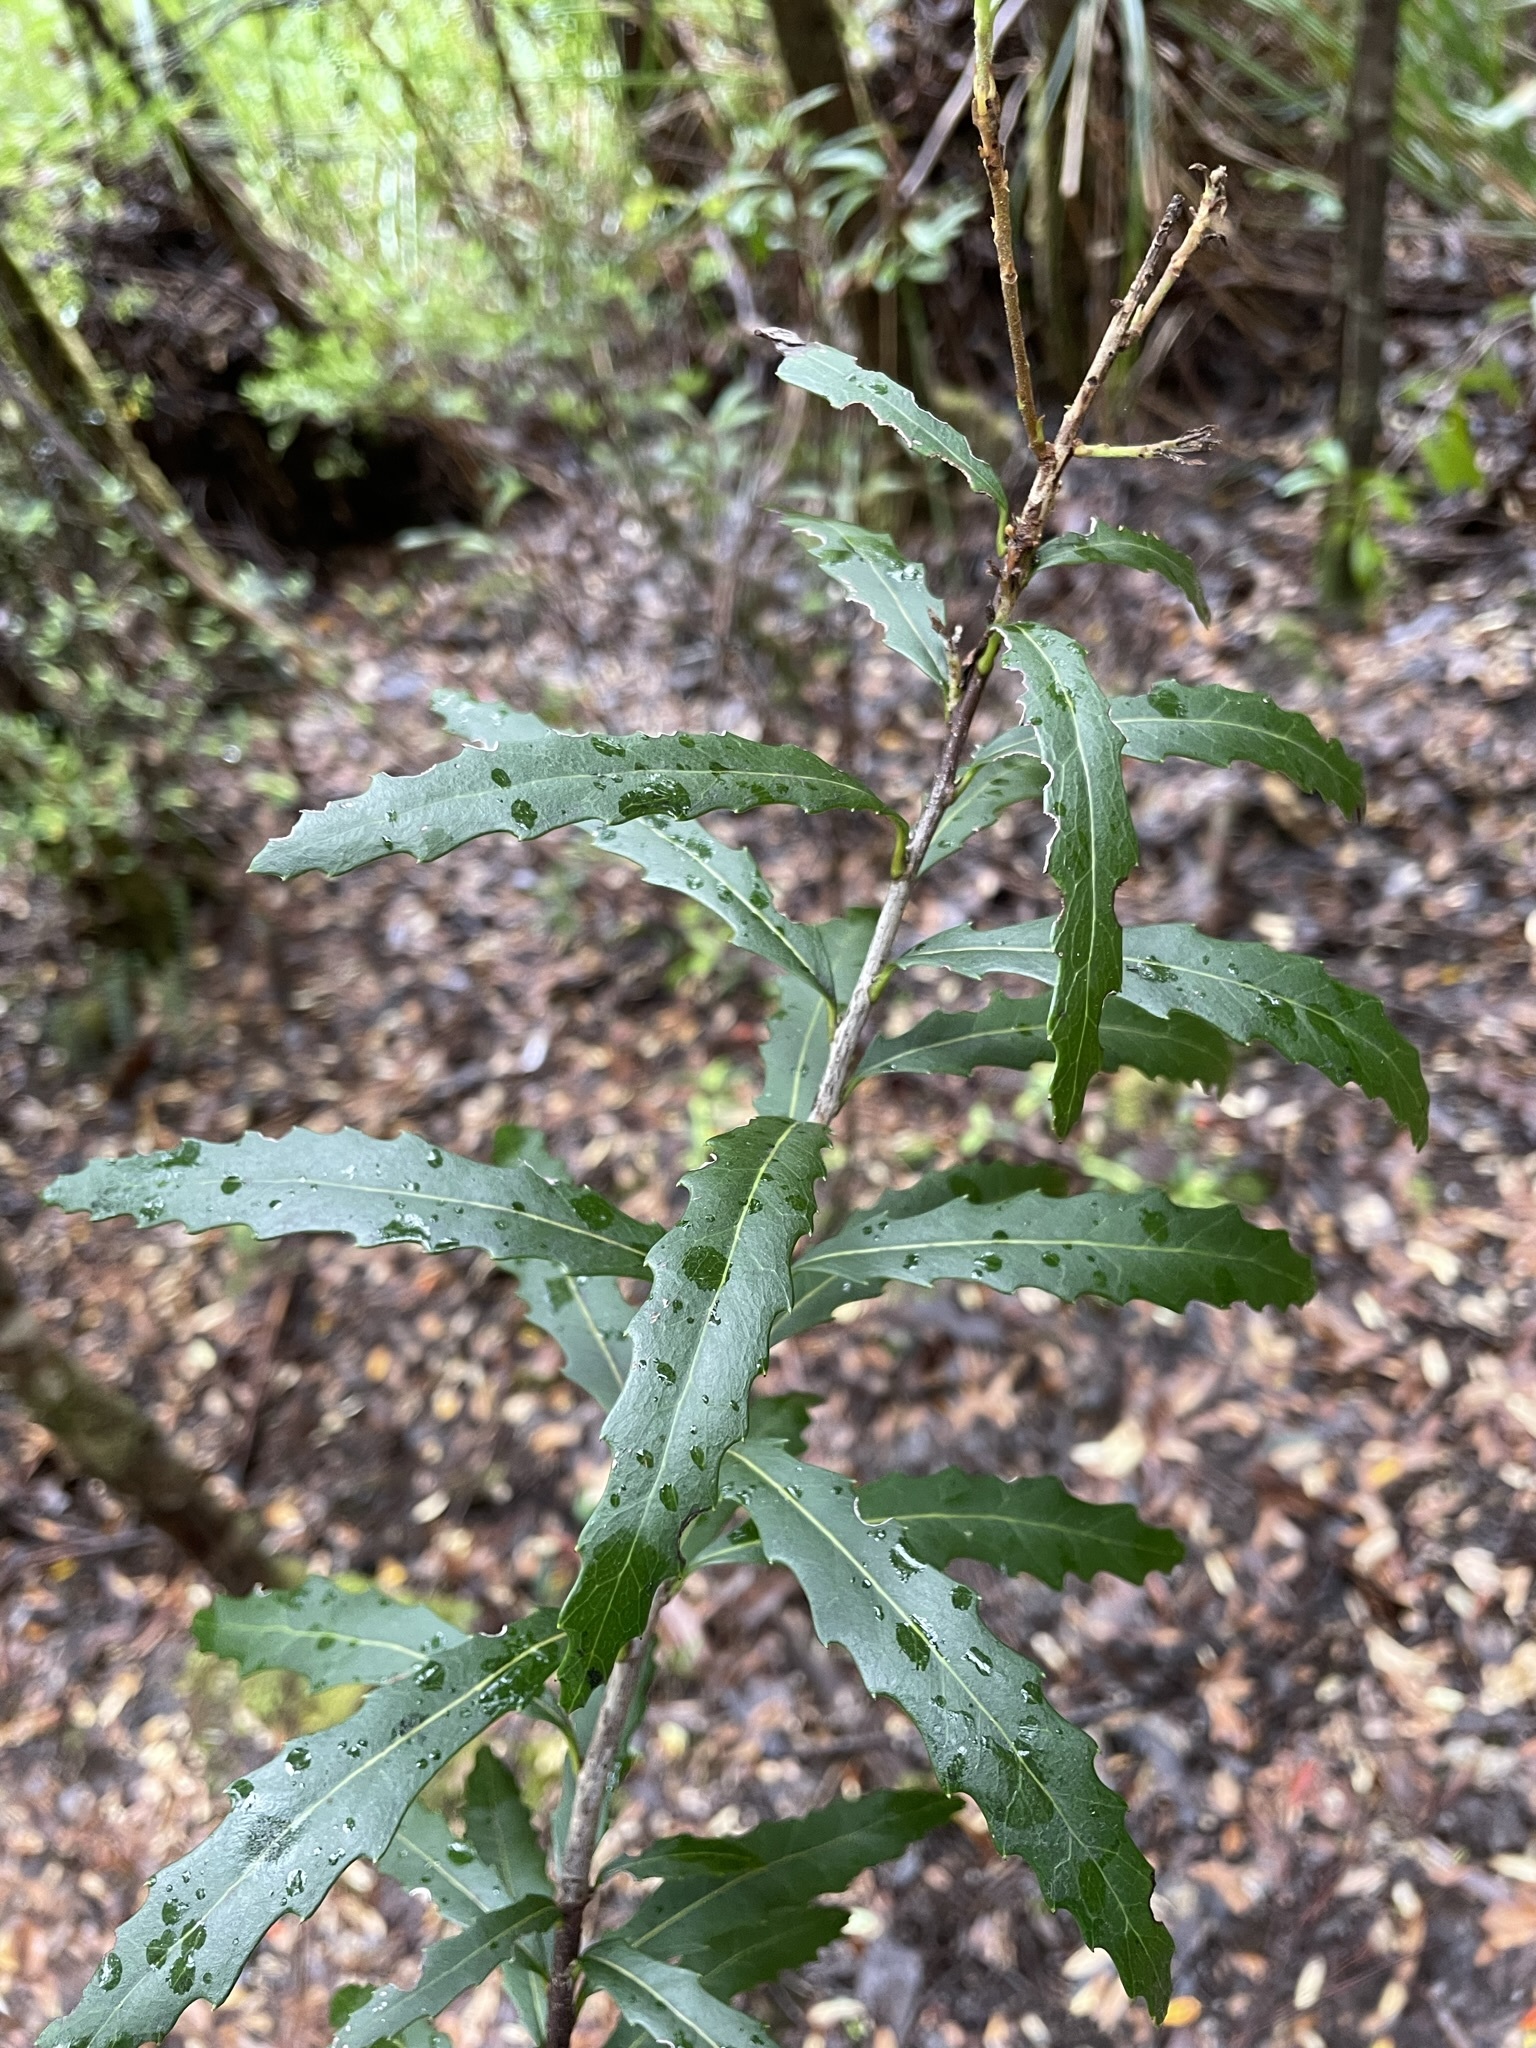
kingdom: Plantae
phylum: Tracheophyta
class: Magnoliopsida
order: Proteales
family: Proteaceae
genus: Orites
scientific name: Orites diversifolius
